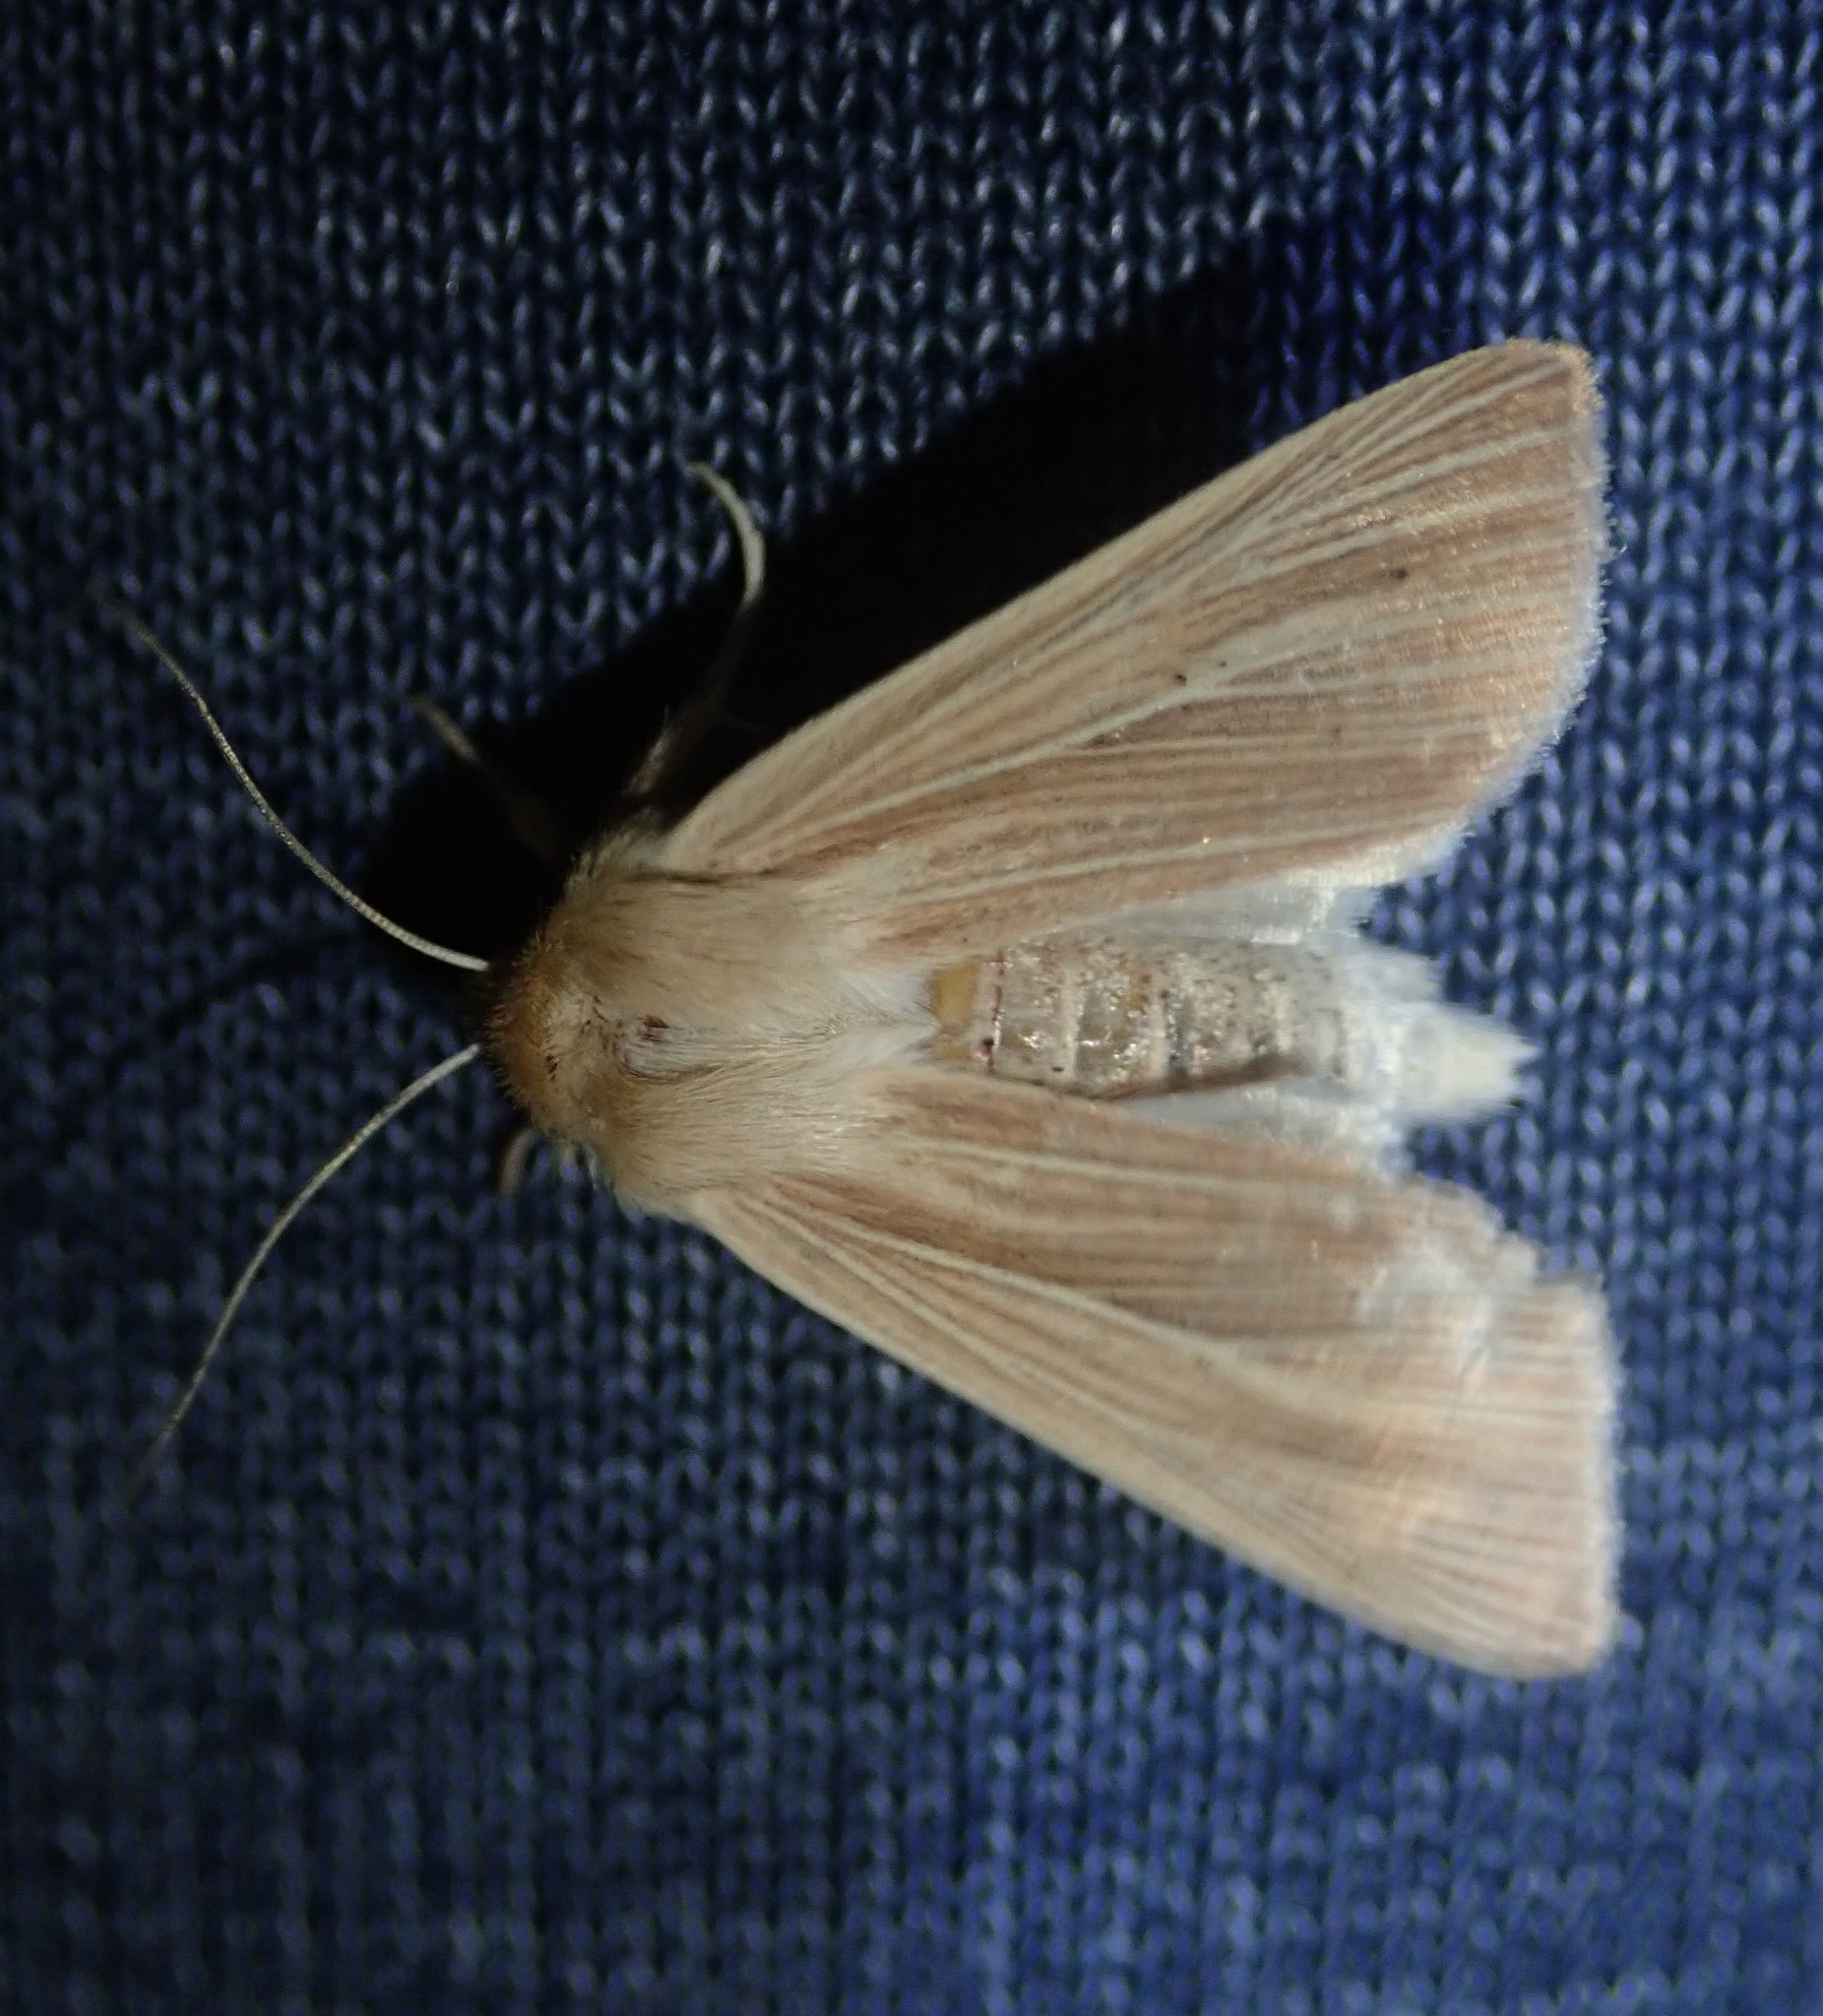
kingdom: Animalia
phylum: Arthropoda
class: Insecta
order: Lepidoptera
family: Noctuidae
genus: Mythimna
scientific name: Mythimna pallens
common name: Common wainscot
